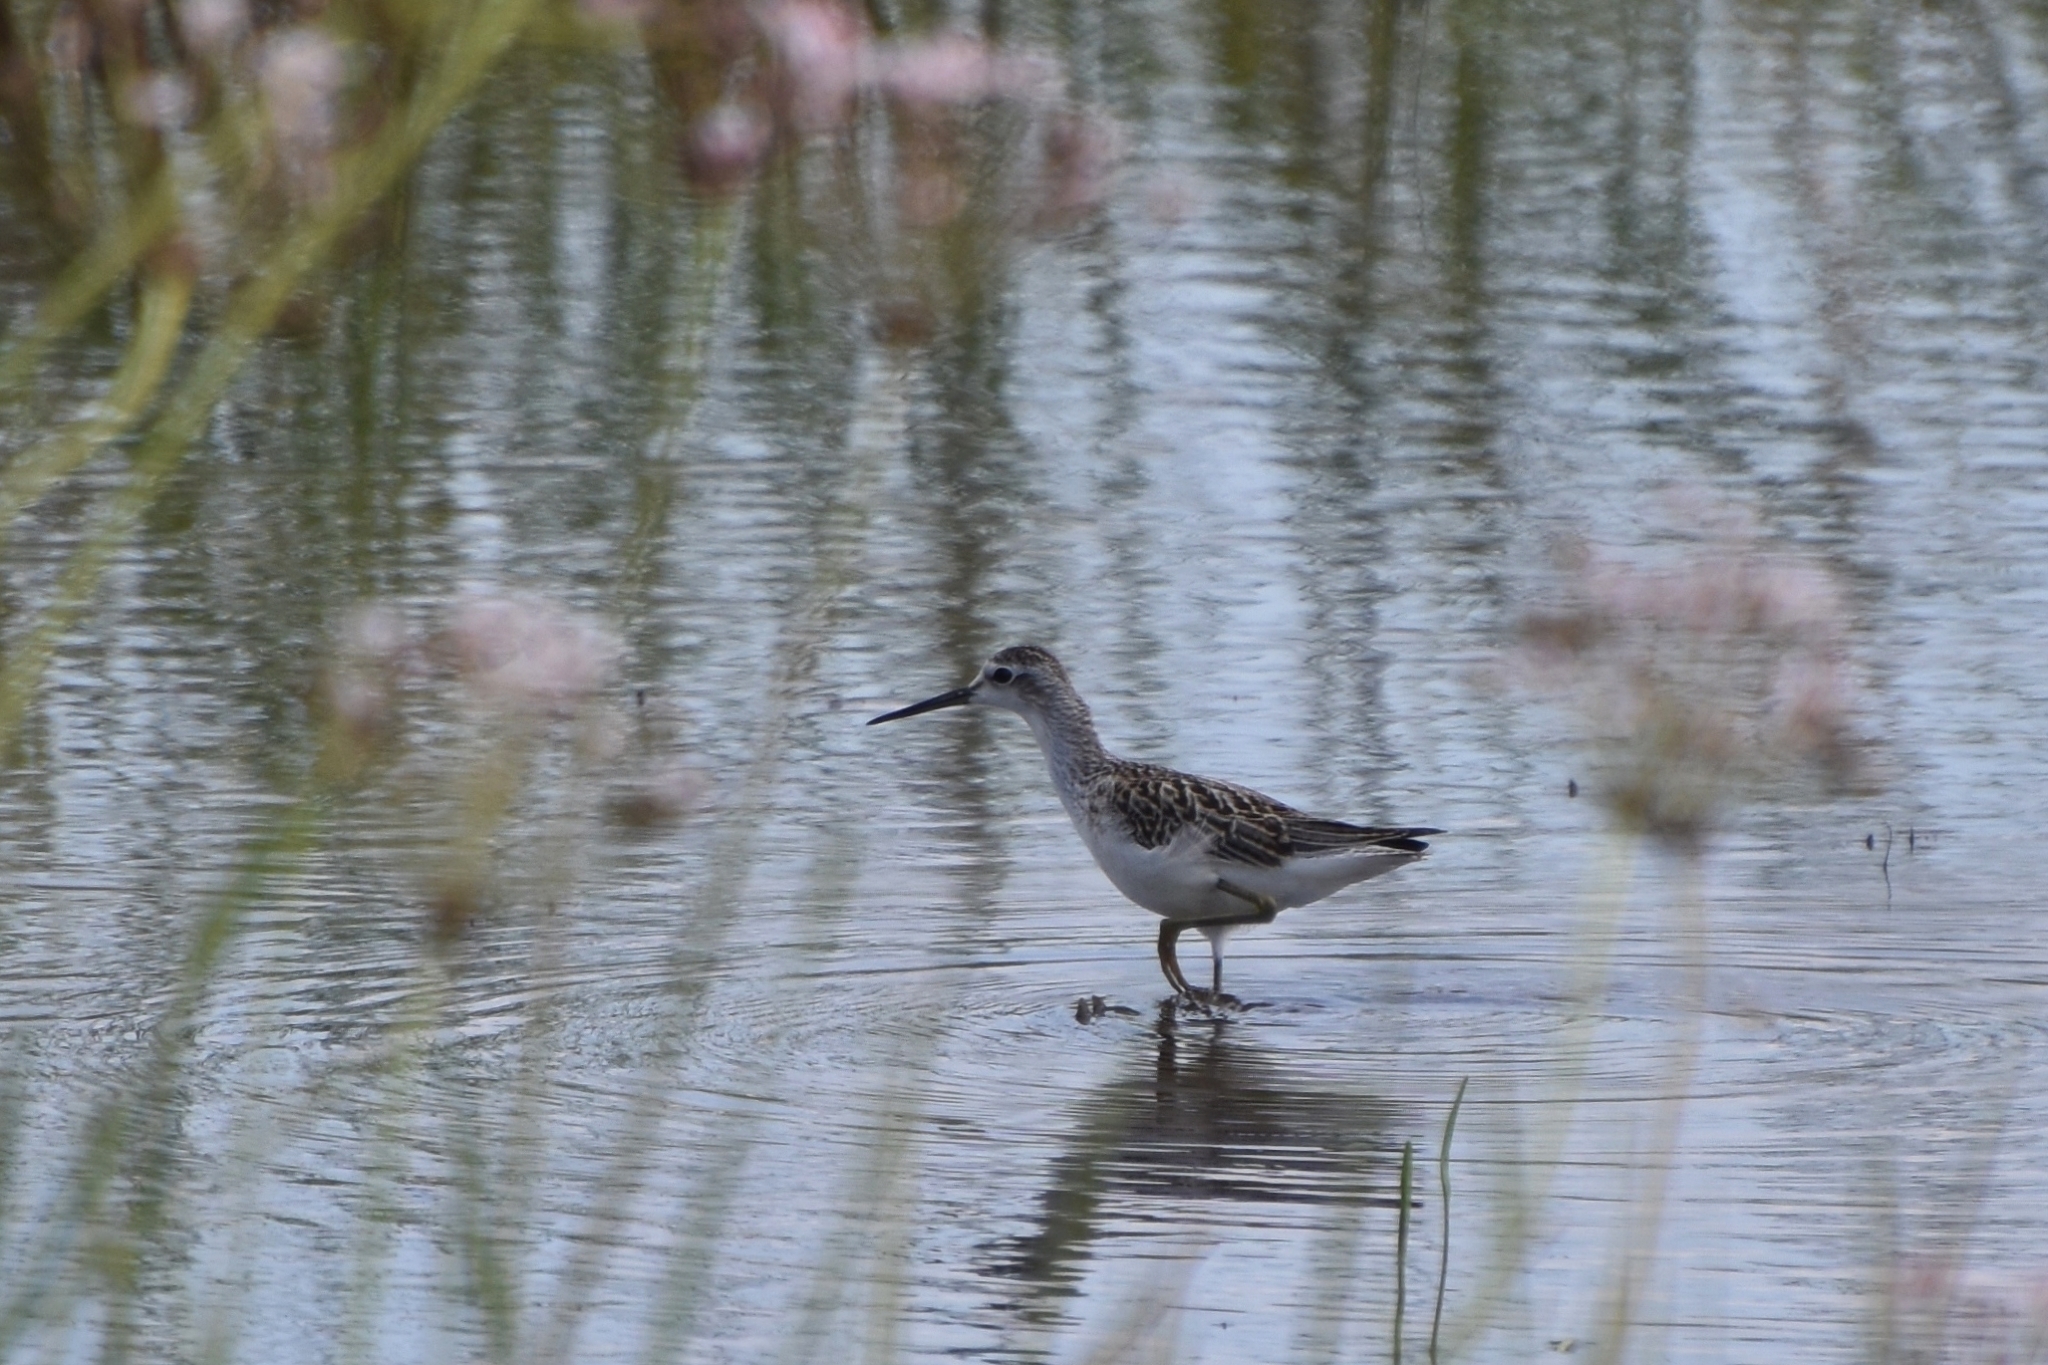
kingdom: Animalia
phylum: Chordata
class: Aves
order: Charadriiformes
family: Scolopacidae
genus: Tringa
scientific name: Tringa stagnatilis
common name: Marsh sandpiper
